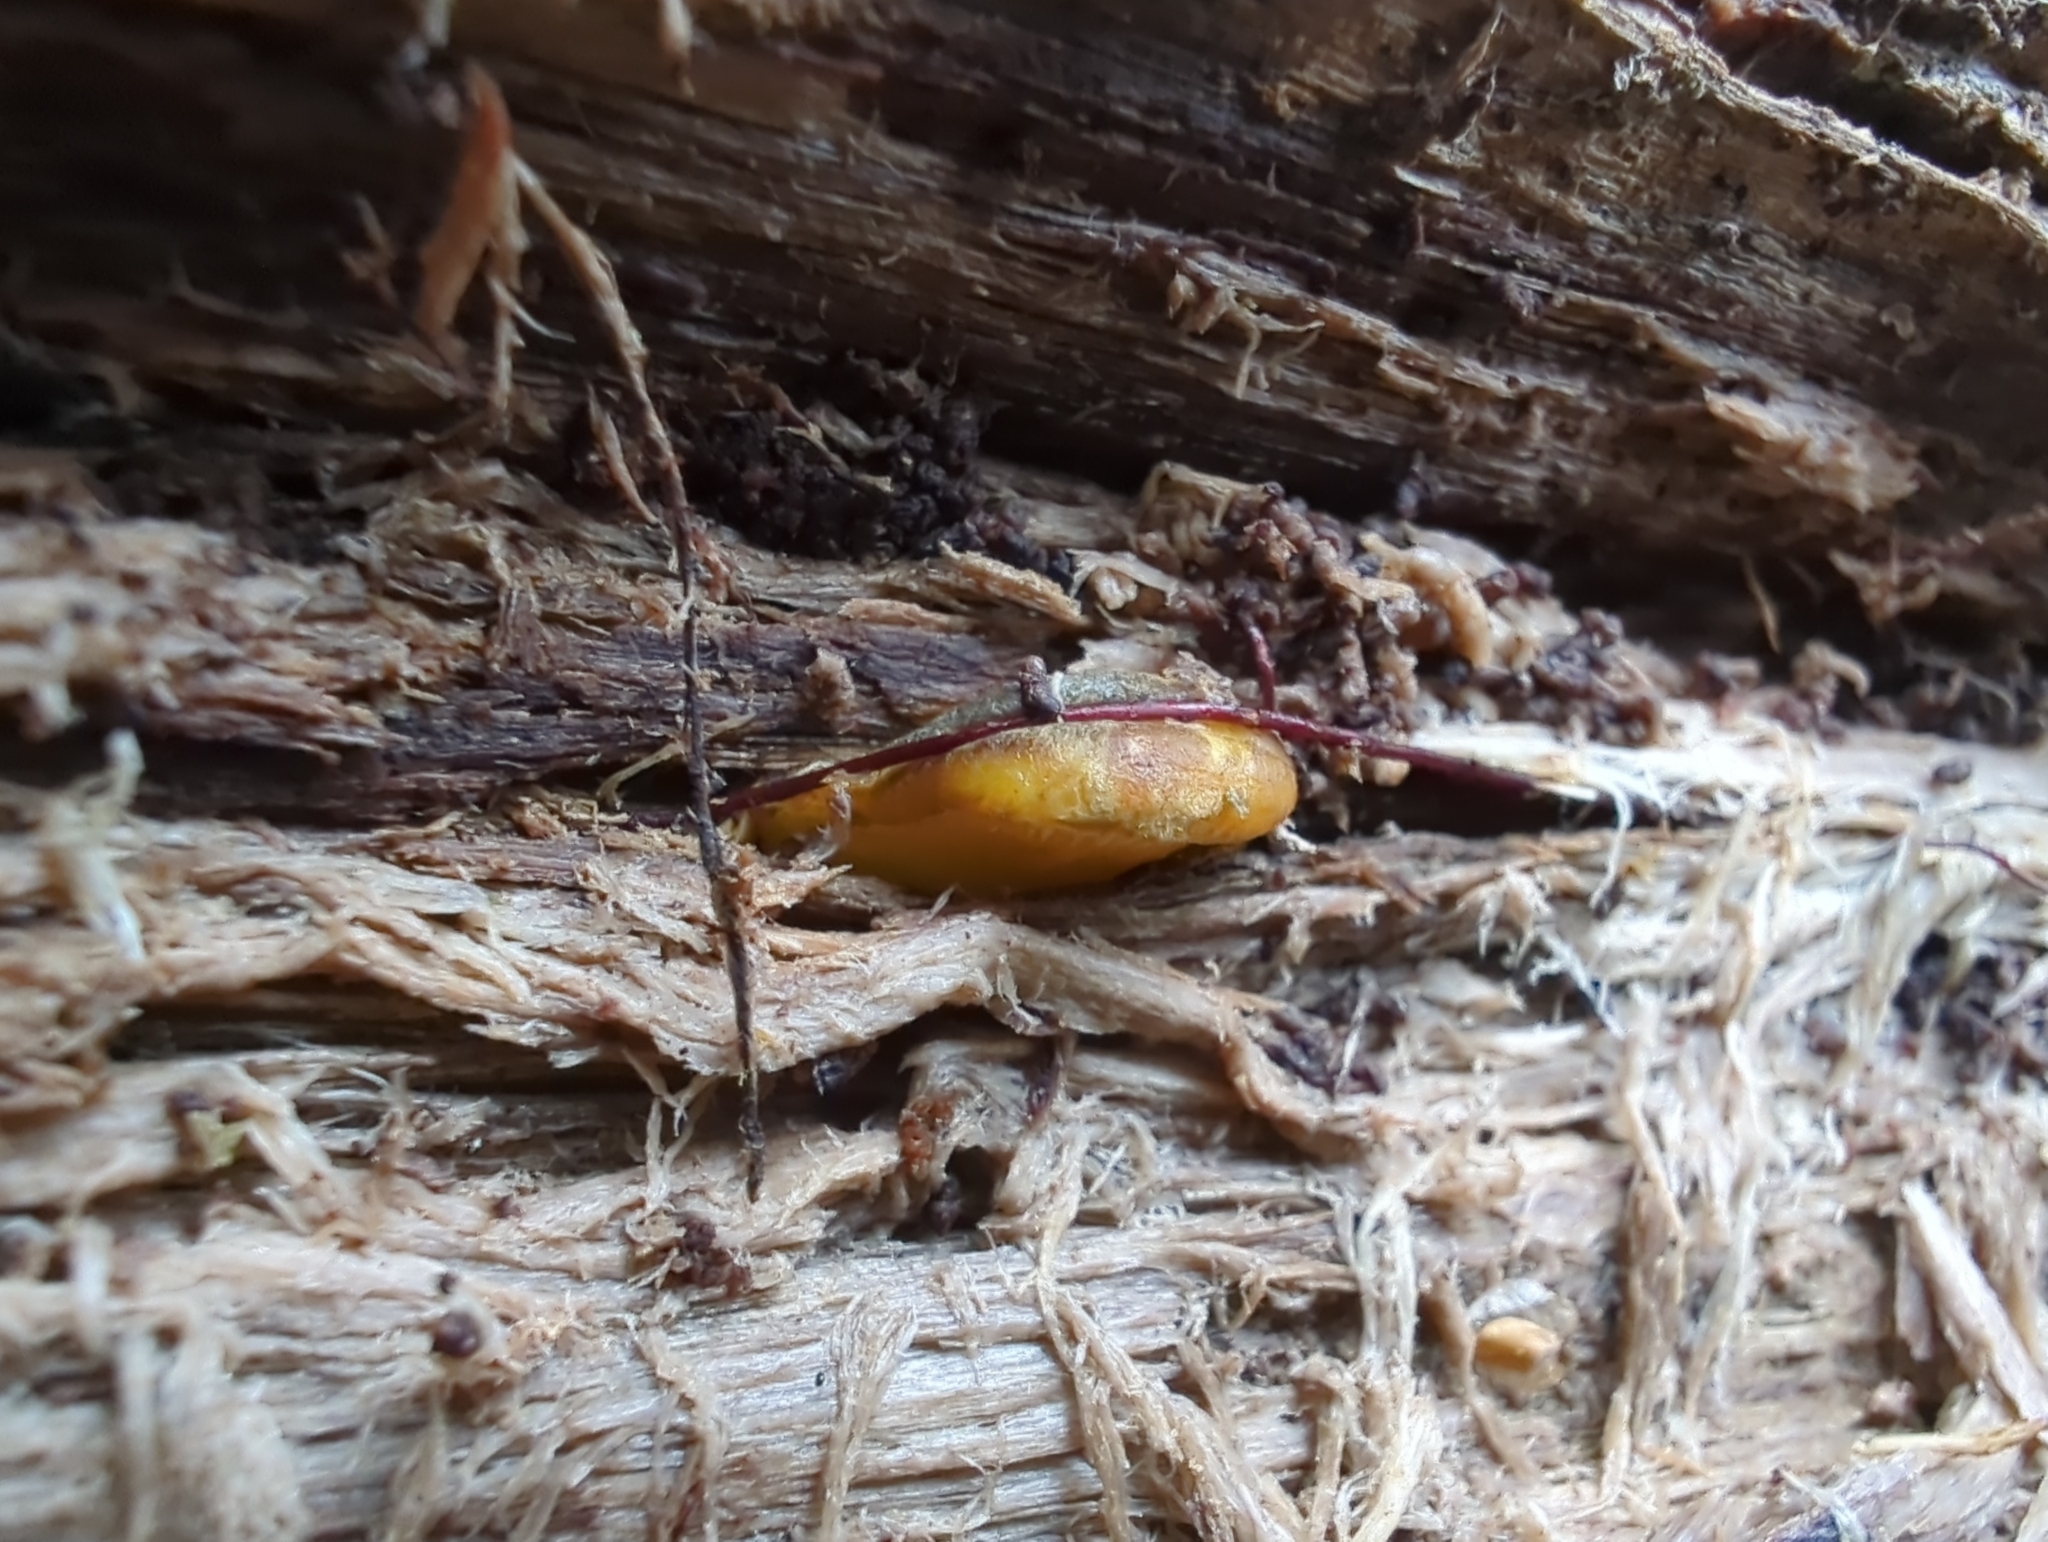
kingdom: Fungi
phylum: Basidiomycota
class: Agaricomycetes
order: Agaricales
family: Sarcomyxaceae
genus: Sarcomyxa
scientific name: Sarcomyxa serotina
